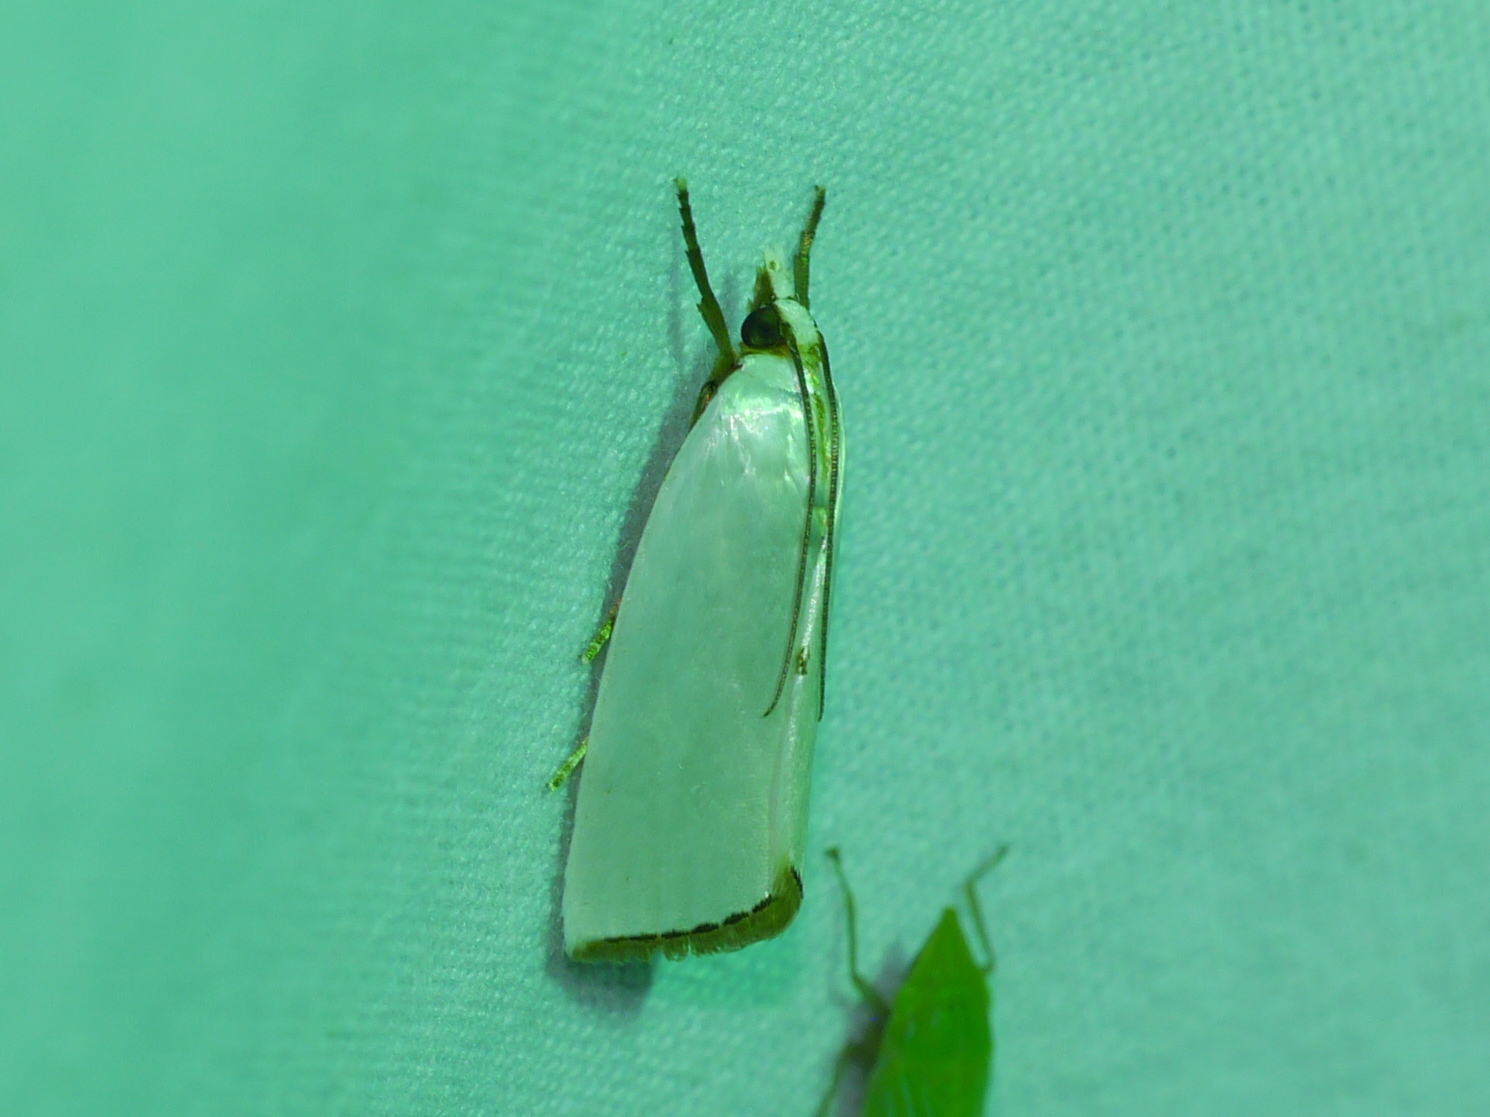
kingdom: Animalia
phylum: Arthropoda
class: Insecta
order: Lepidoptera
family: Crambidae
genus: Argyria
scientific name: Argyria nivalis
